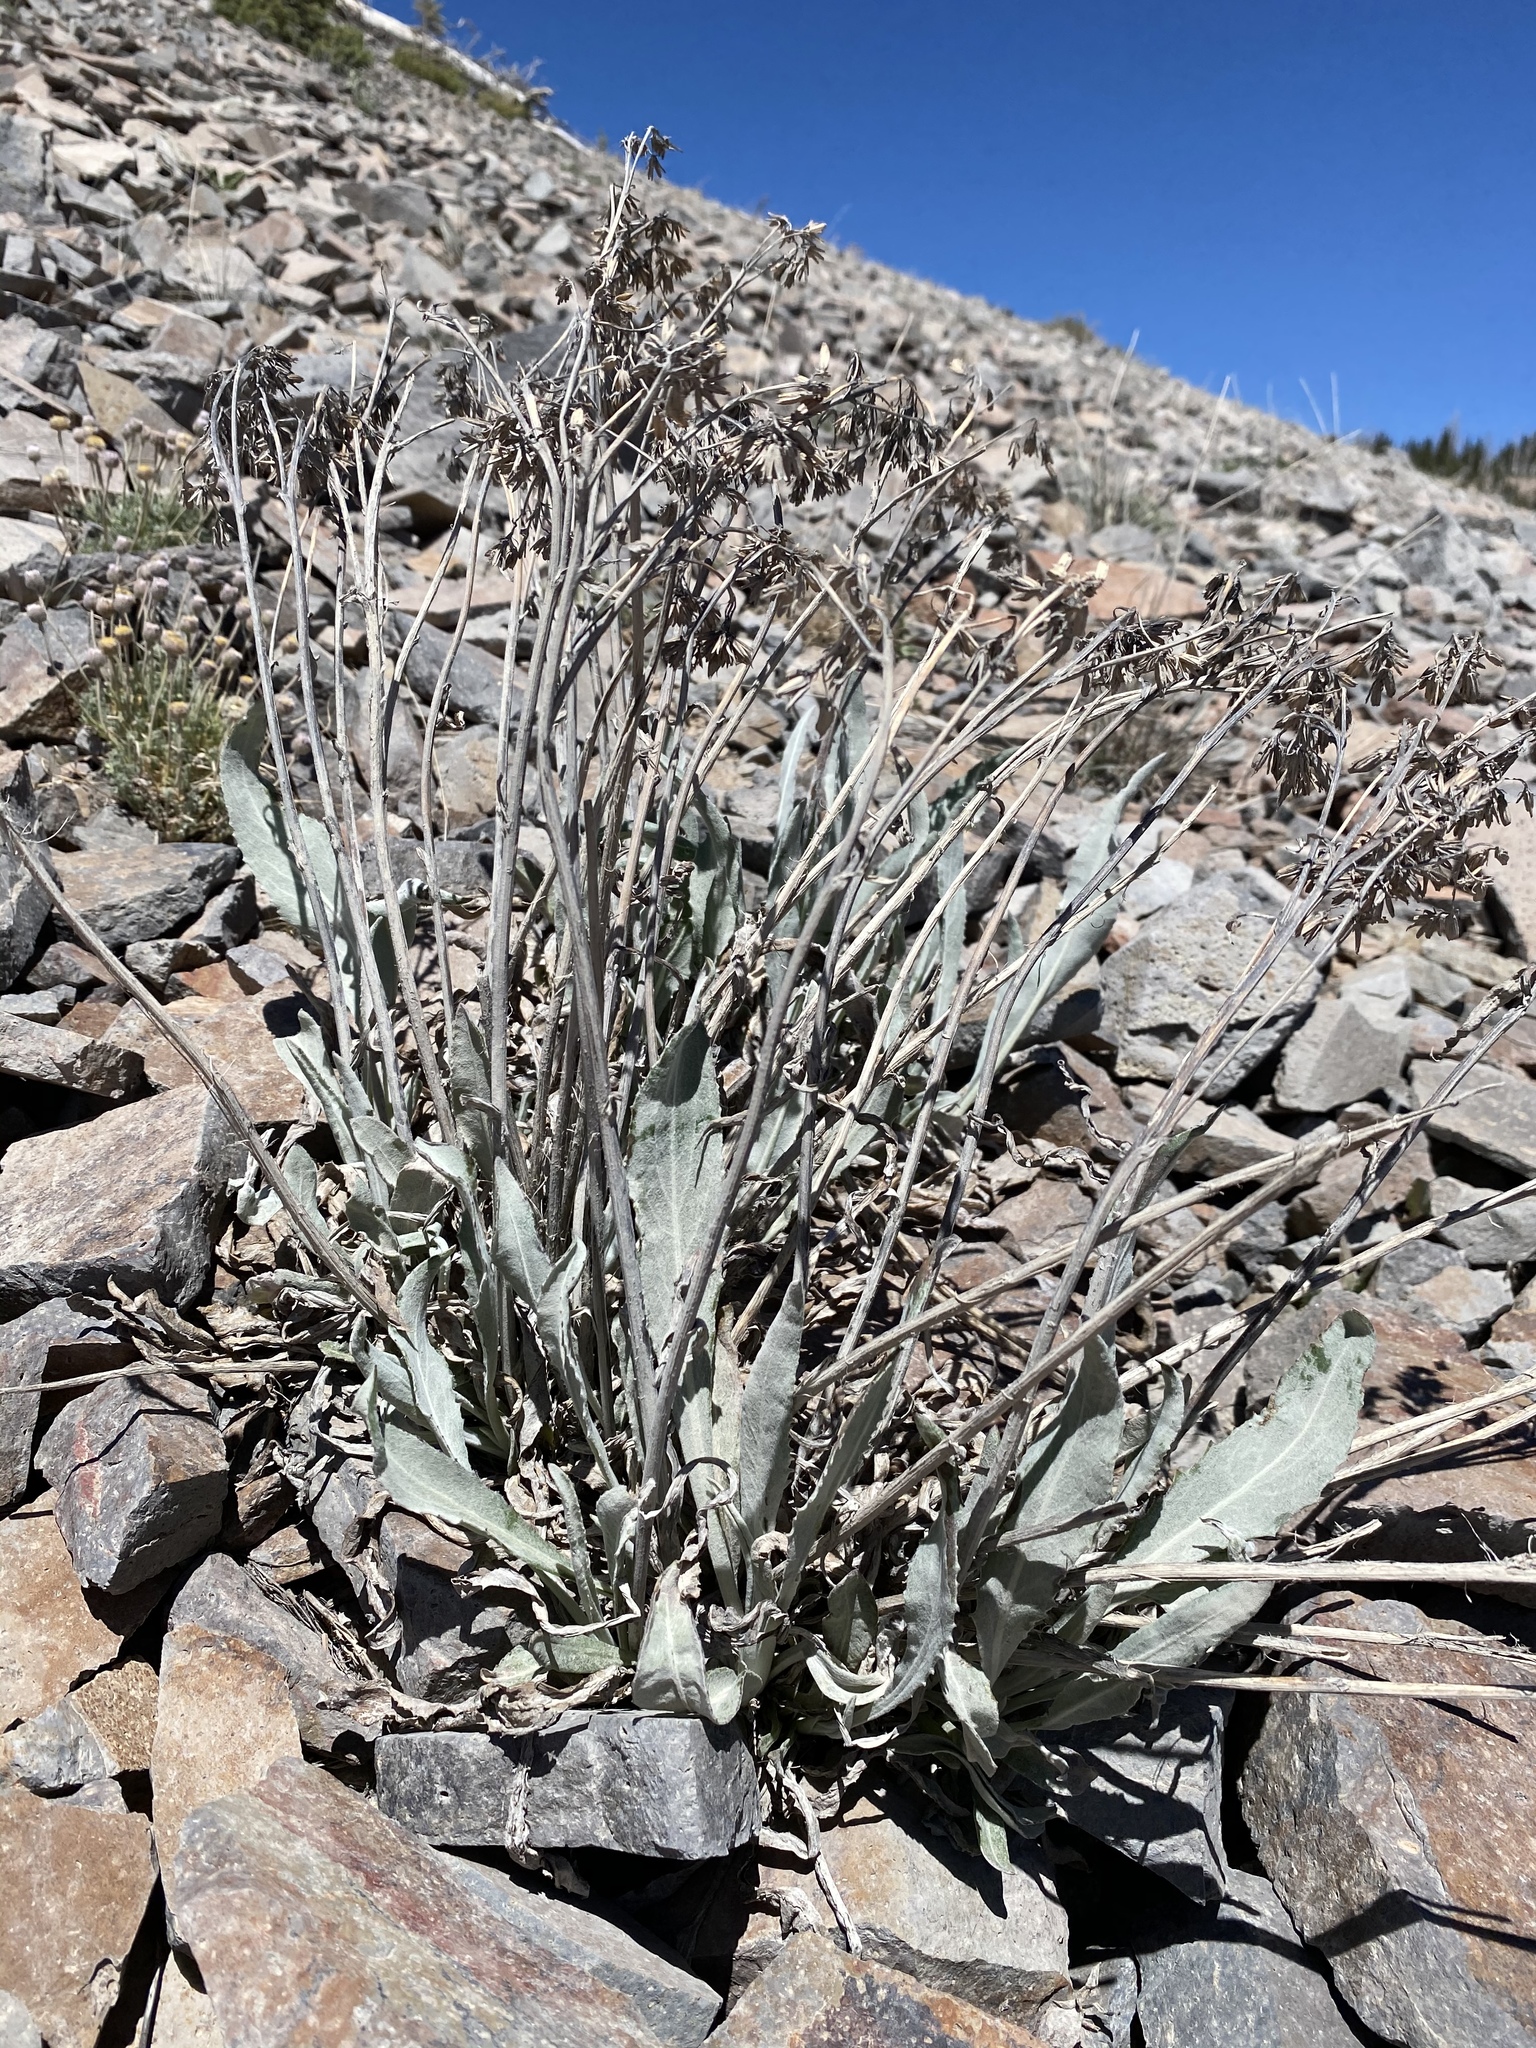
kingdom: Plantae
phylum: Tracheophyta
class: Magnoliopsida
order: Asterales
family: Asteraceae
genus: Senecio
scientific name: Senecio atratus
